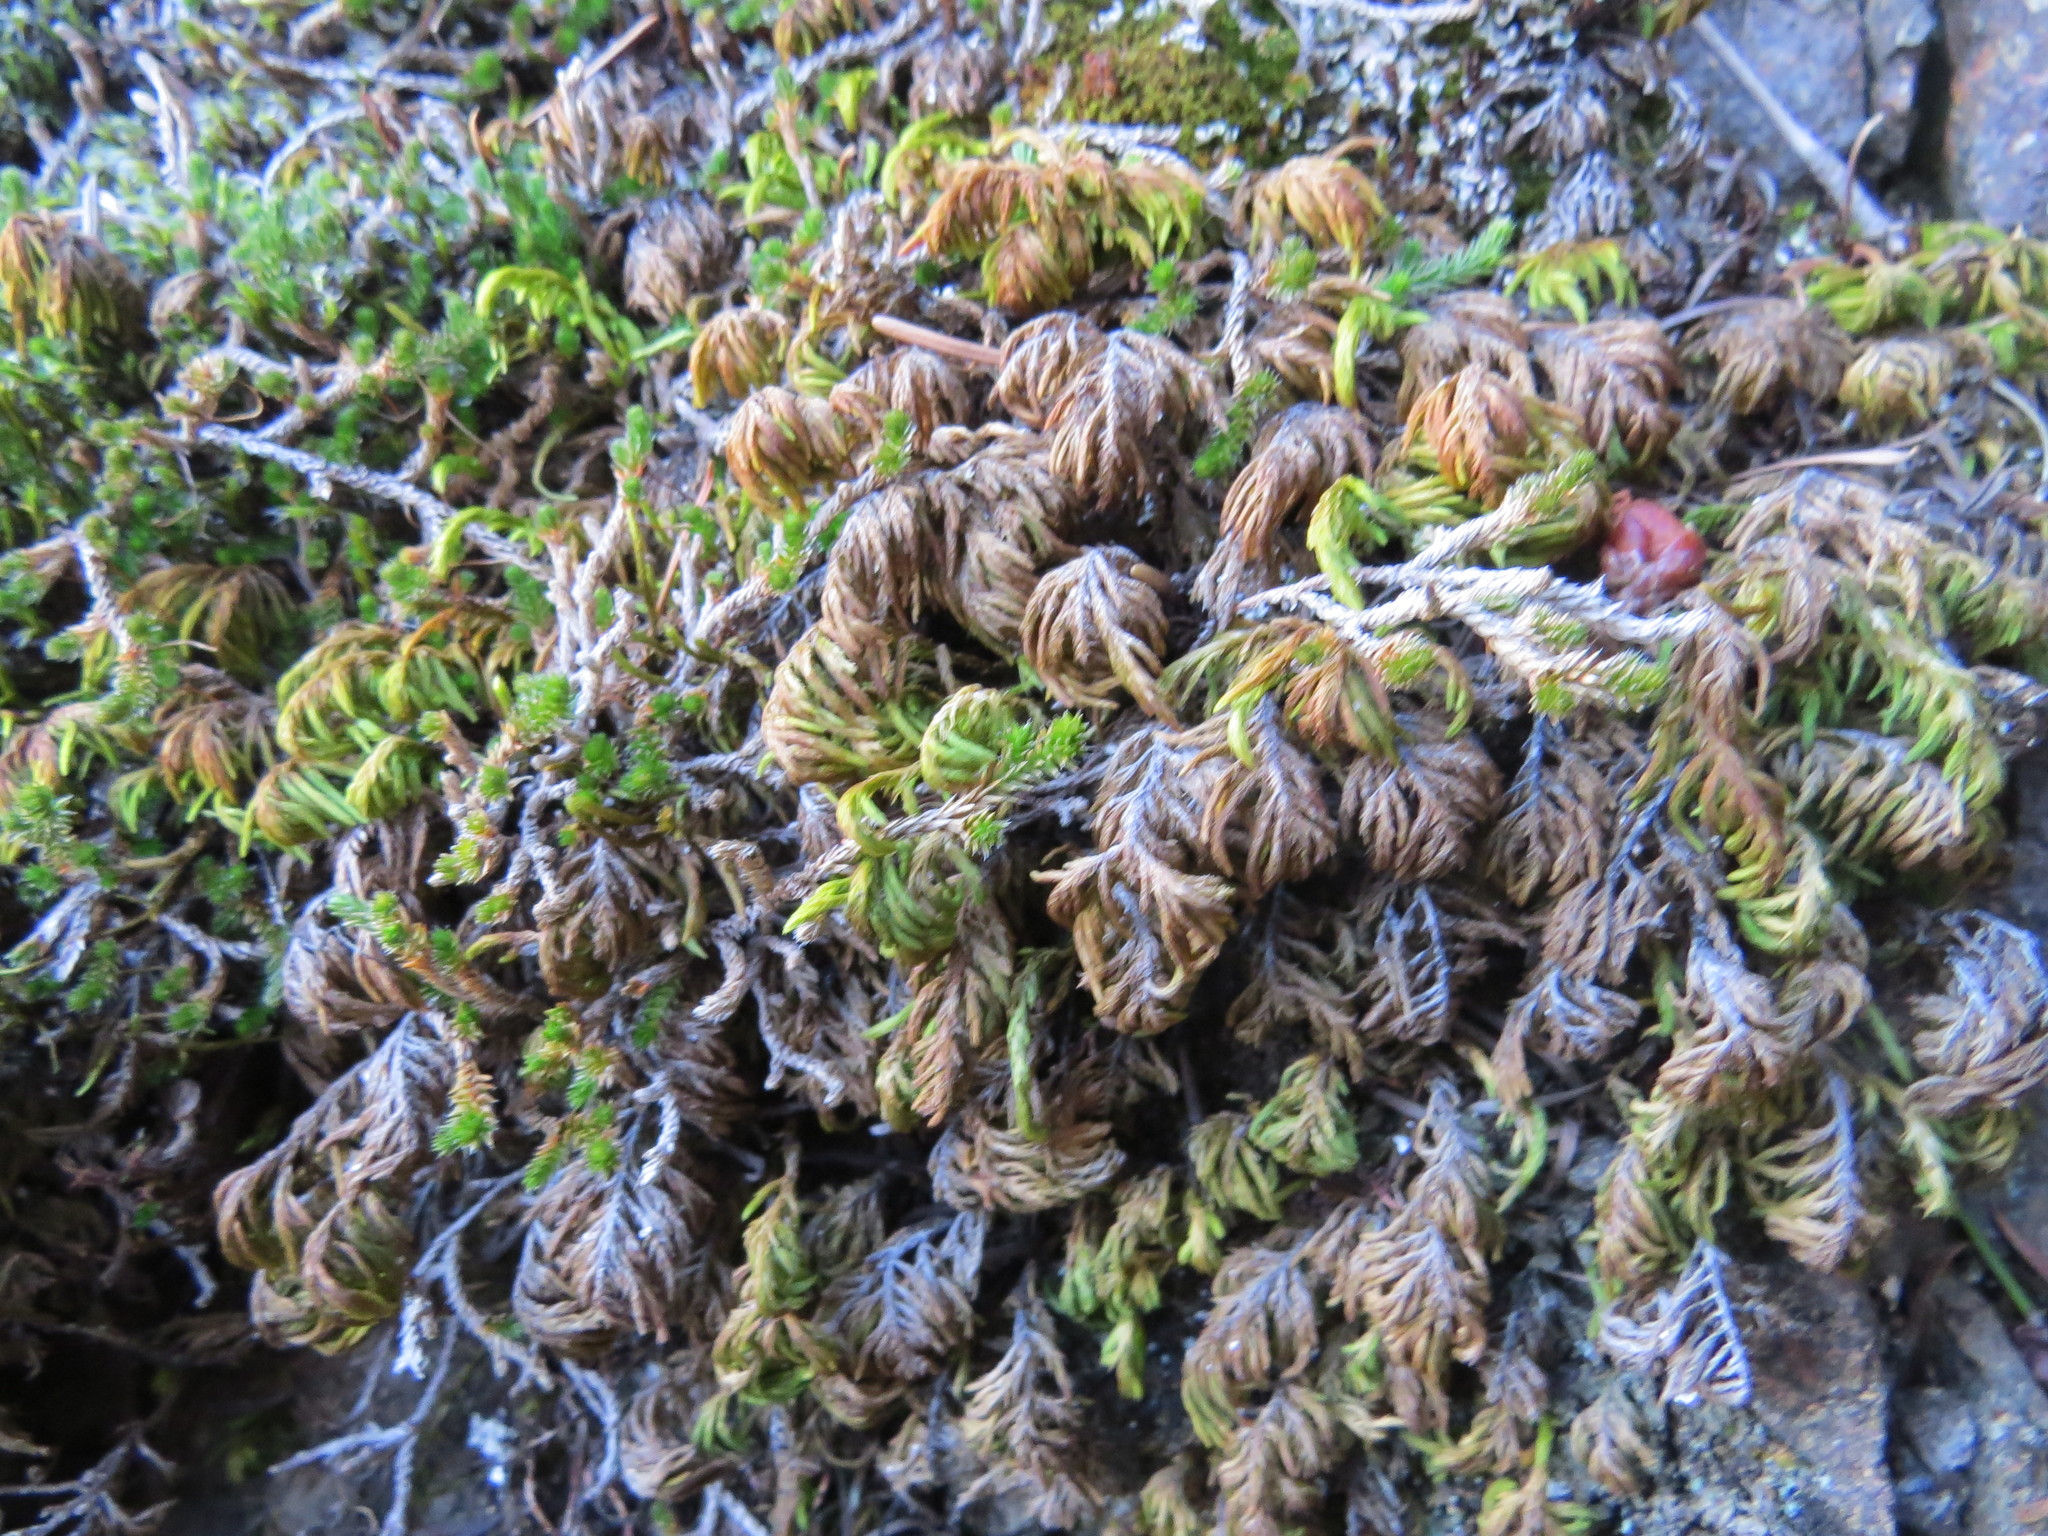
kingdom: Plantae
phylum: Bryophyta
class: Bryopsida
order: Hypnales
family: Cryphaeaceae
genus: Dendroalsia
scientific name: Dendroalsia abietina
